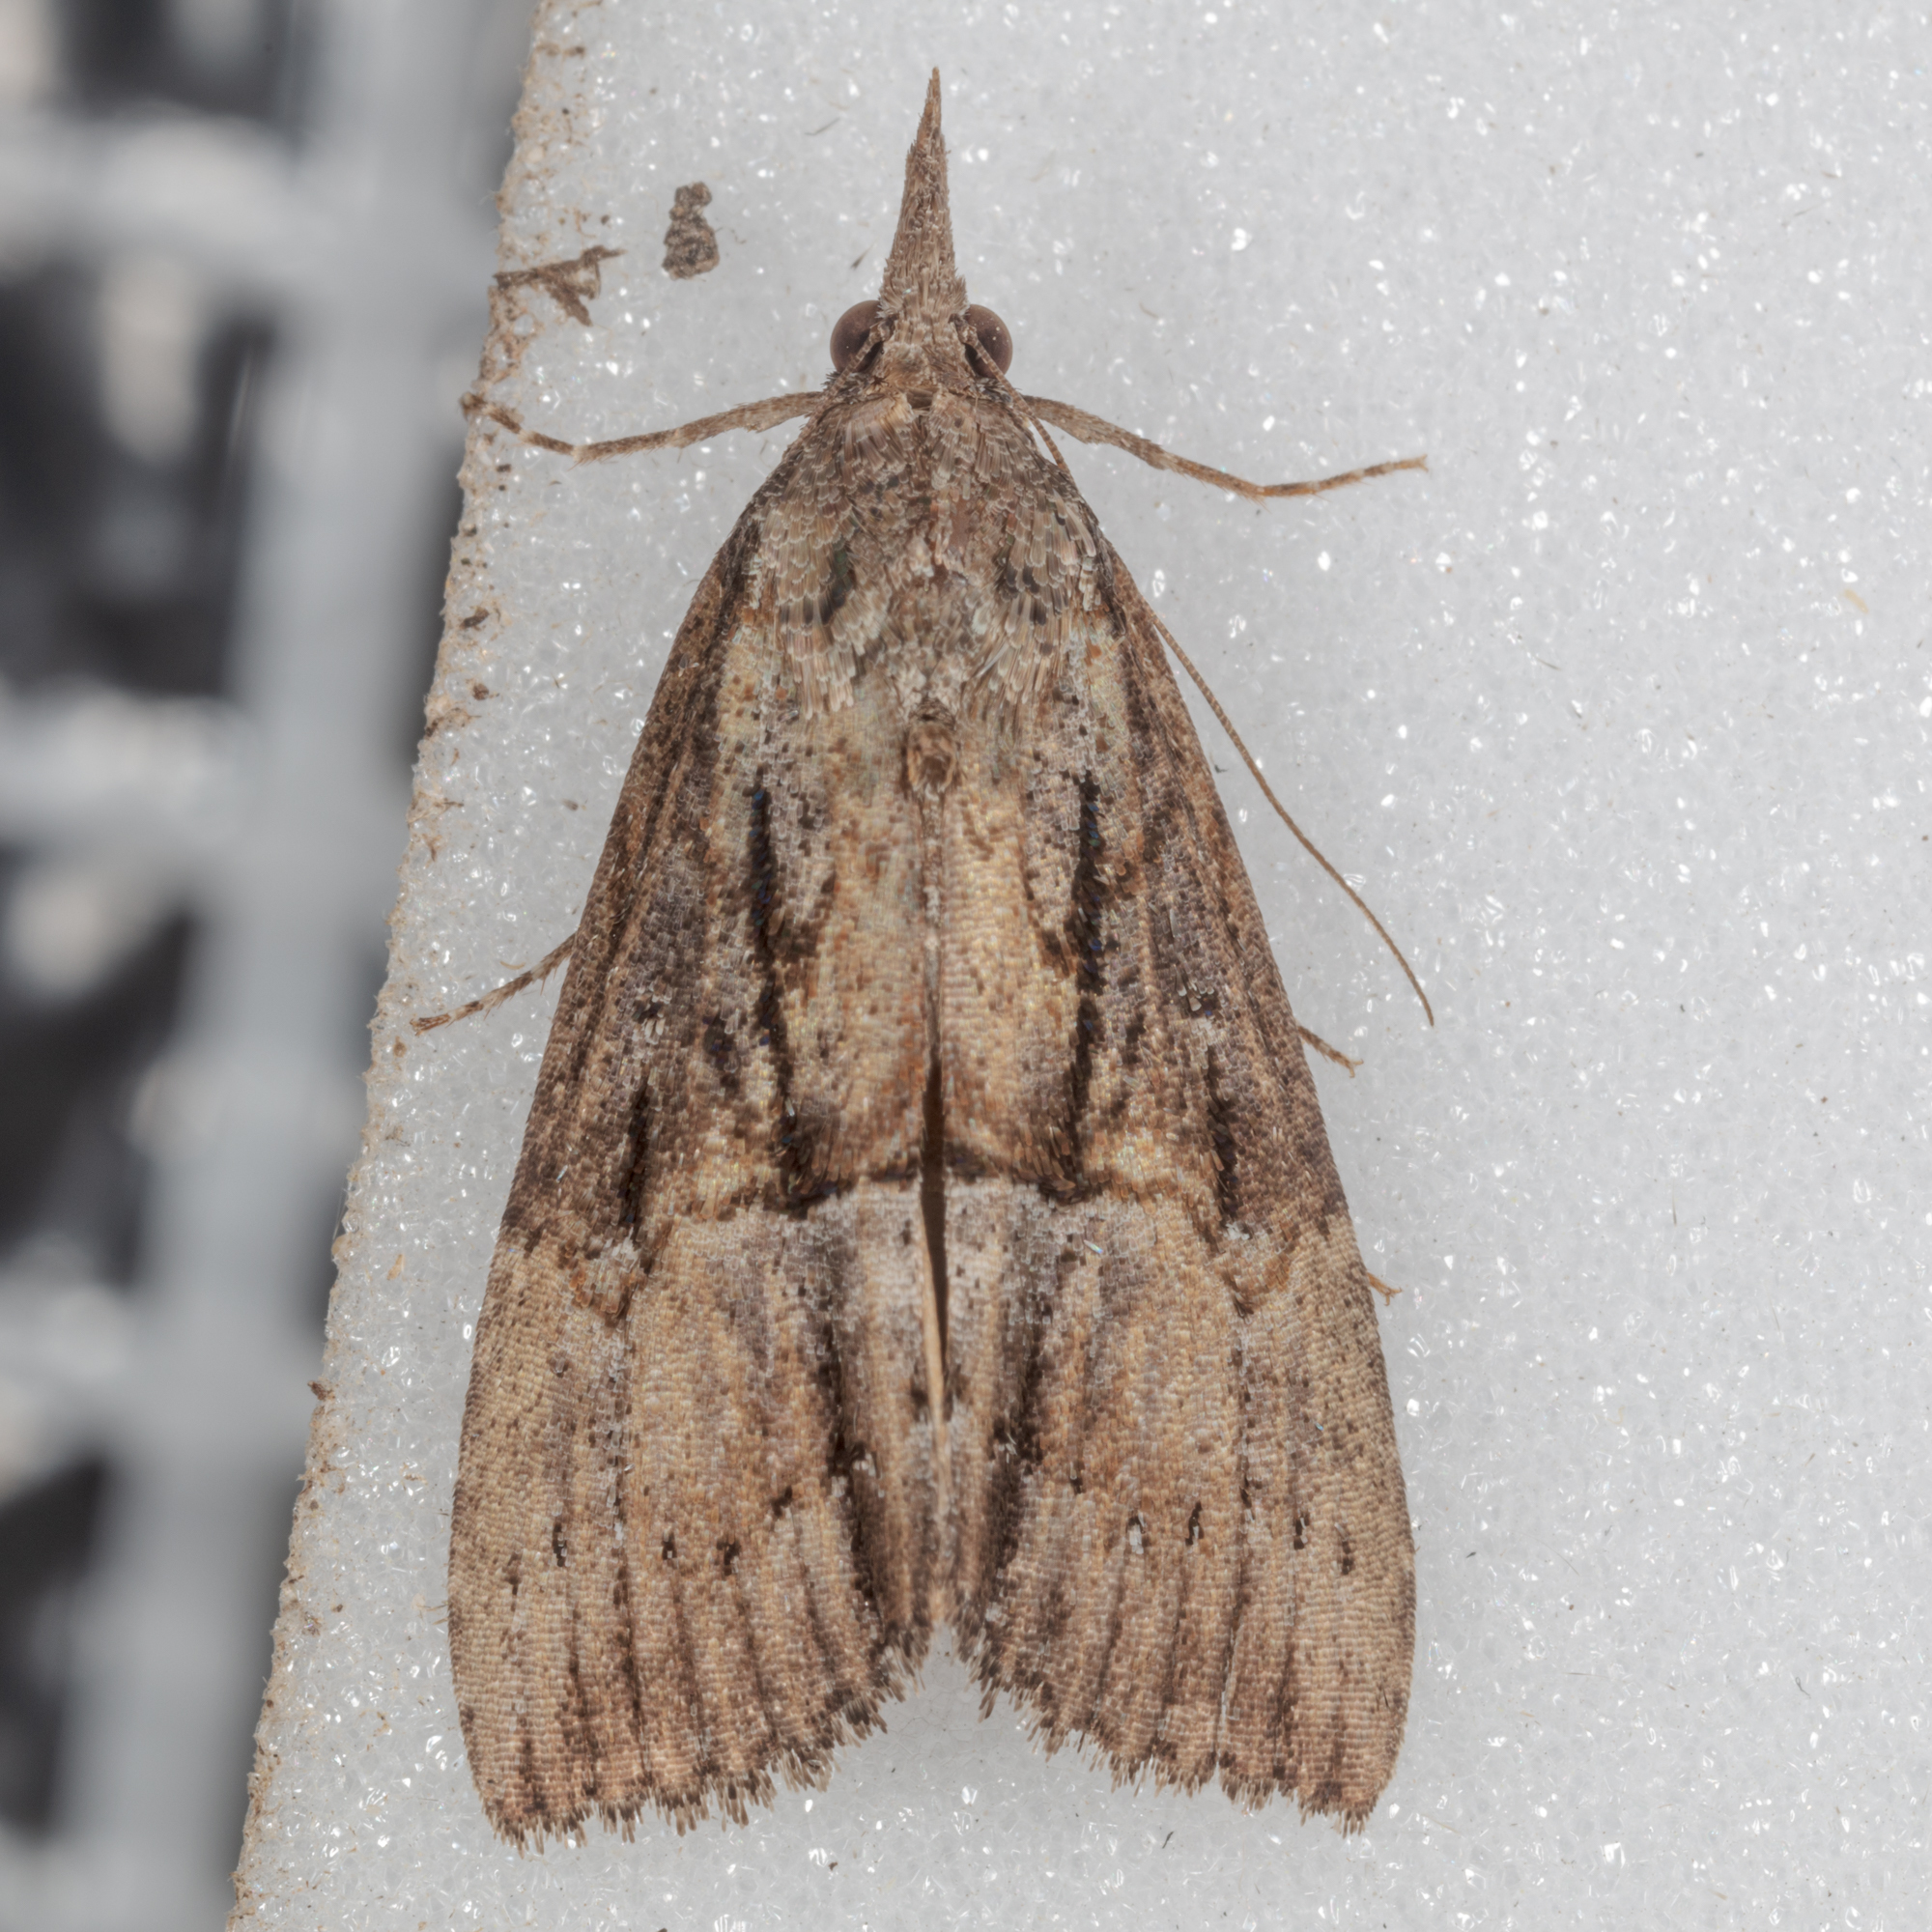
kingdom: Animalia
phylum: Arthropoda
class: Insecta
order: Lepidoptera
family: Erebidae
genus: Hypena
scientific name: Hypena scabra
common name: Green cloverworm
